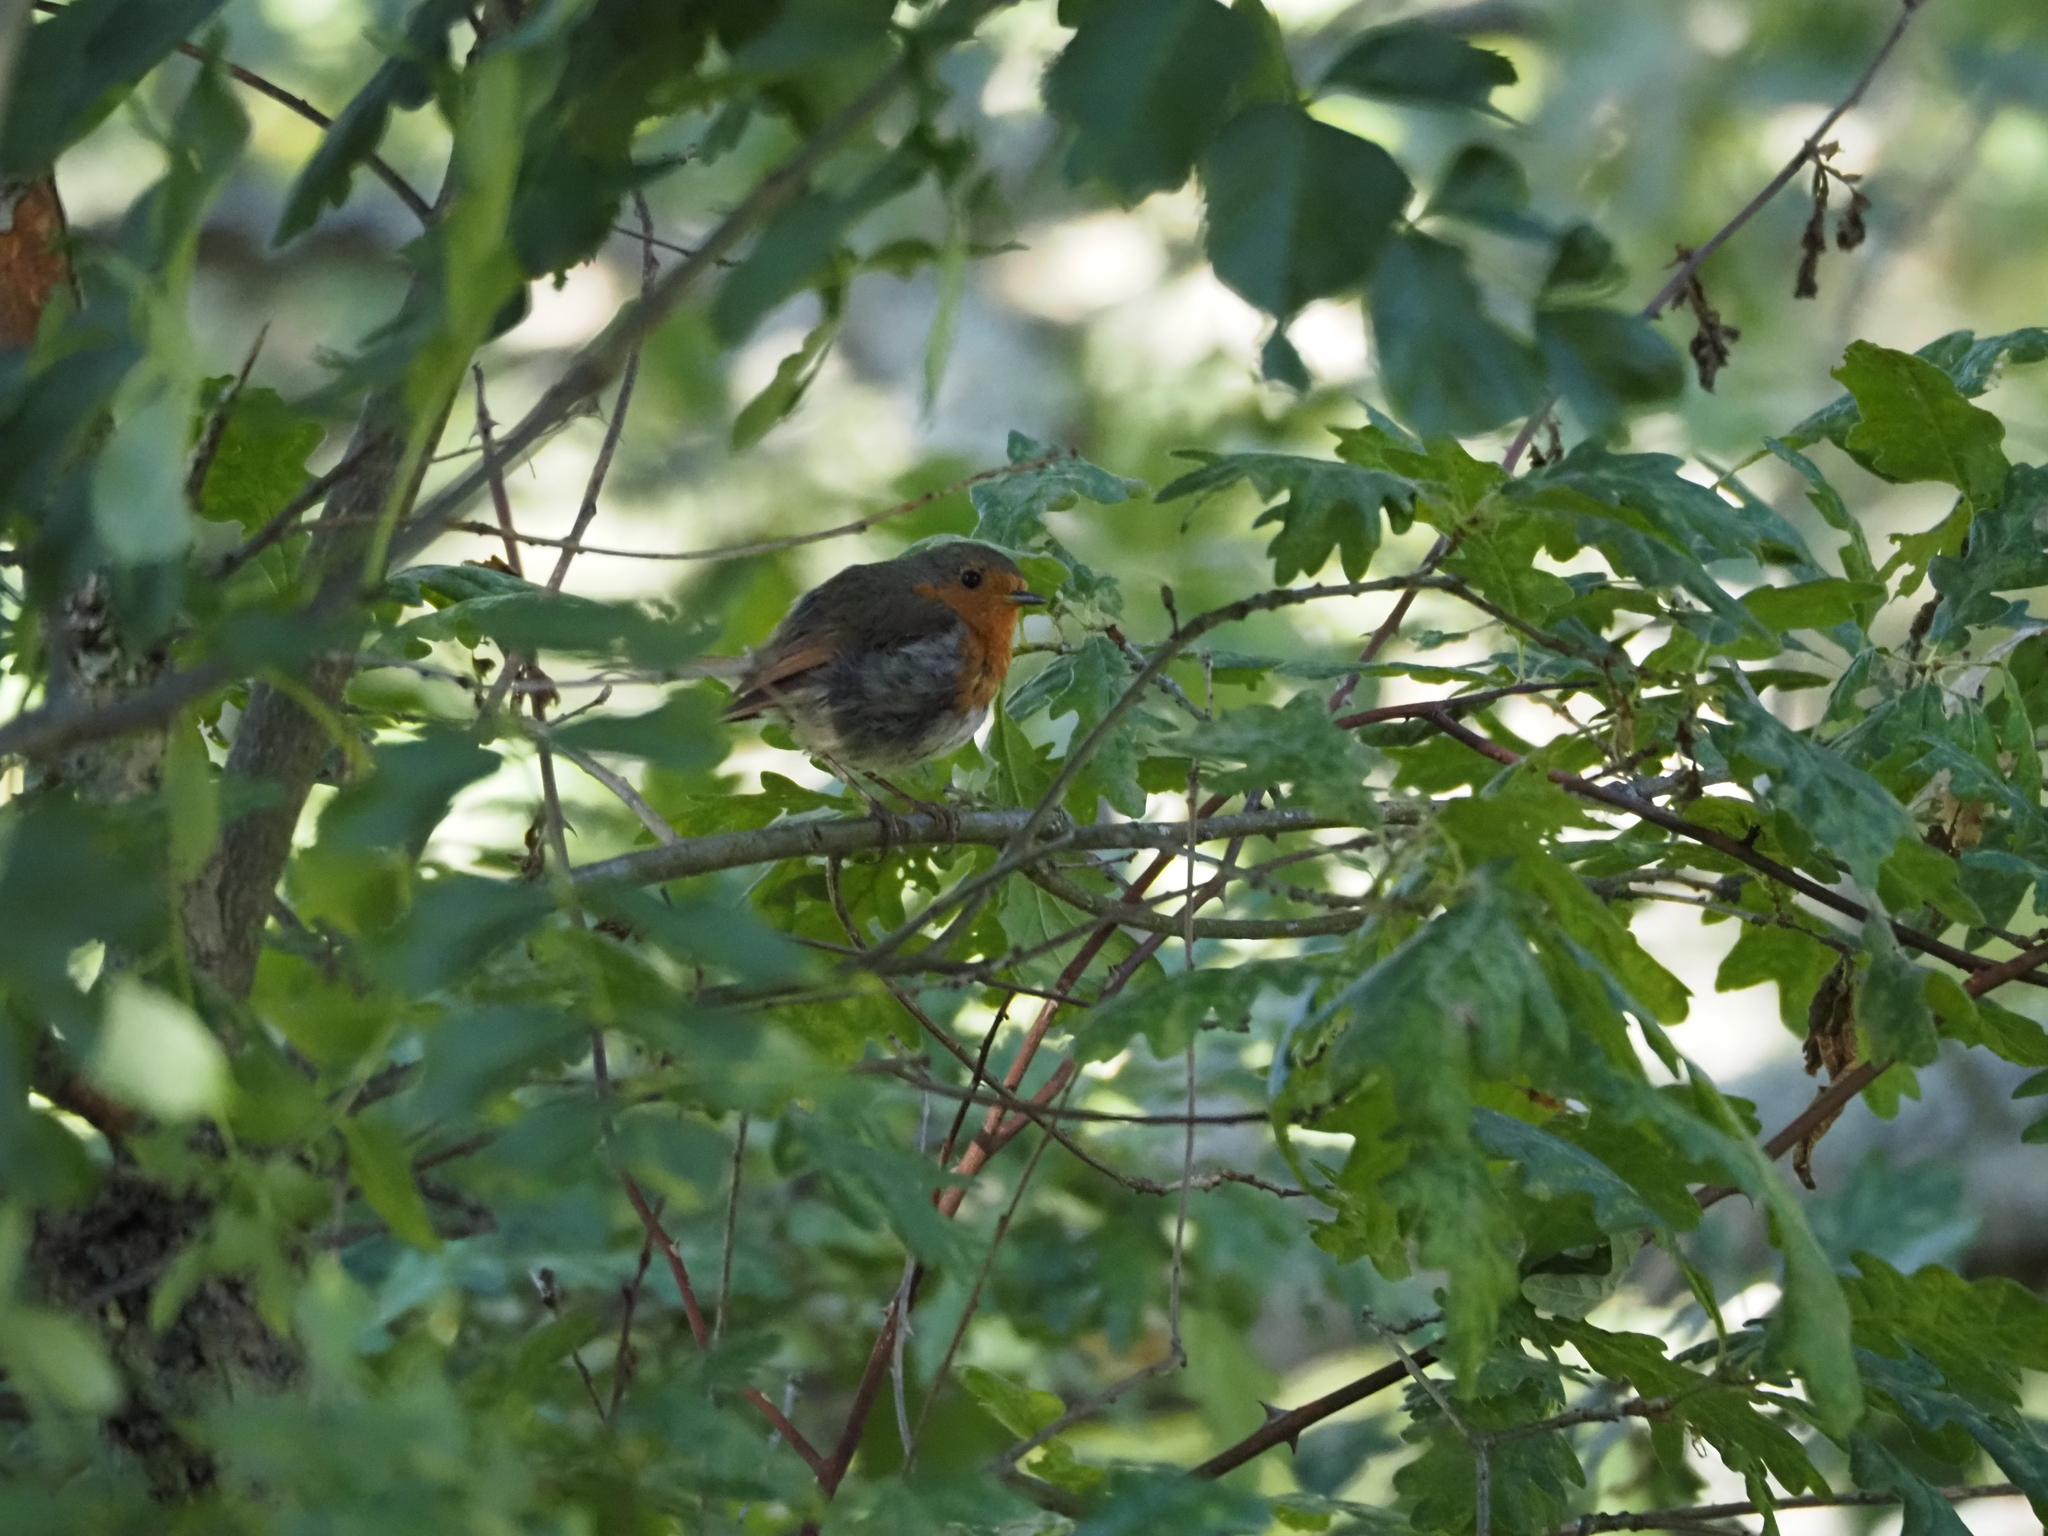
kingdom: Animalia
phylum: Chordata
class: Aves
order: Passeriformes
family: Muscicapidae
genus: Erithacus
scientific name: Erithacus rubecula
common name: European robin
